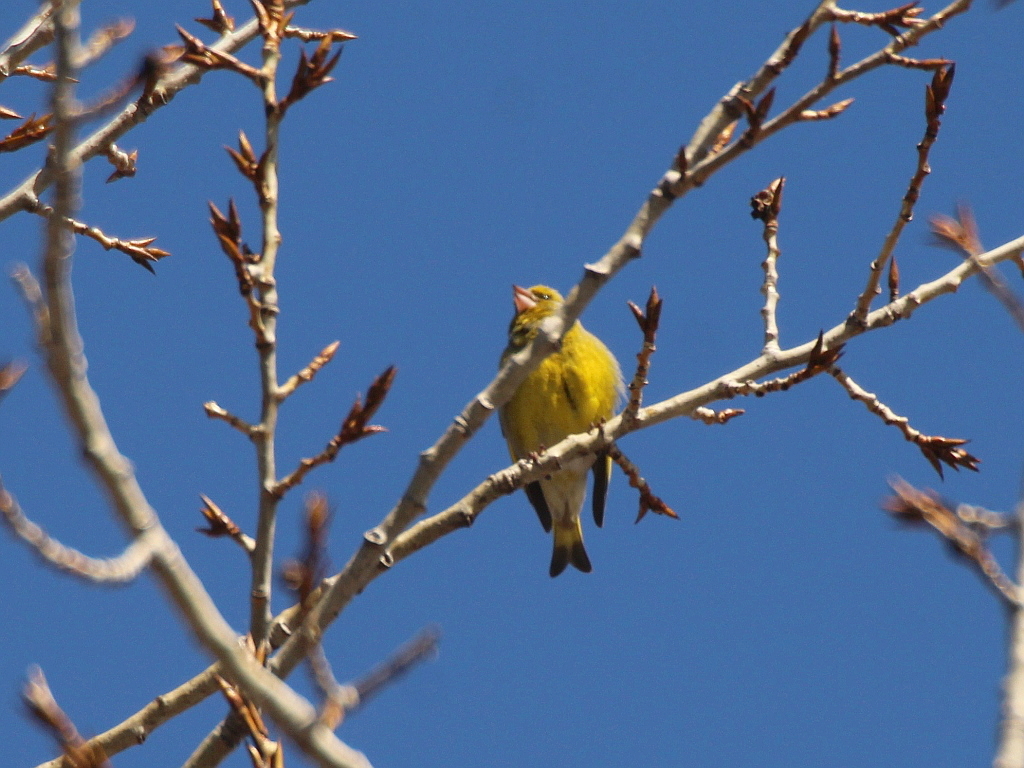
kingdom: Plantae
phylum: Tracheophyta
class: Liliopsida
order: Poales
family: Poaceae
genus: Chloris
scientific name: Chloris chloris
